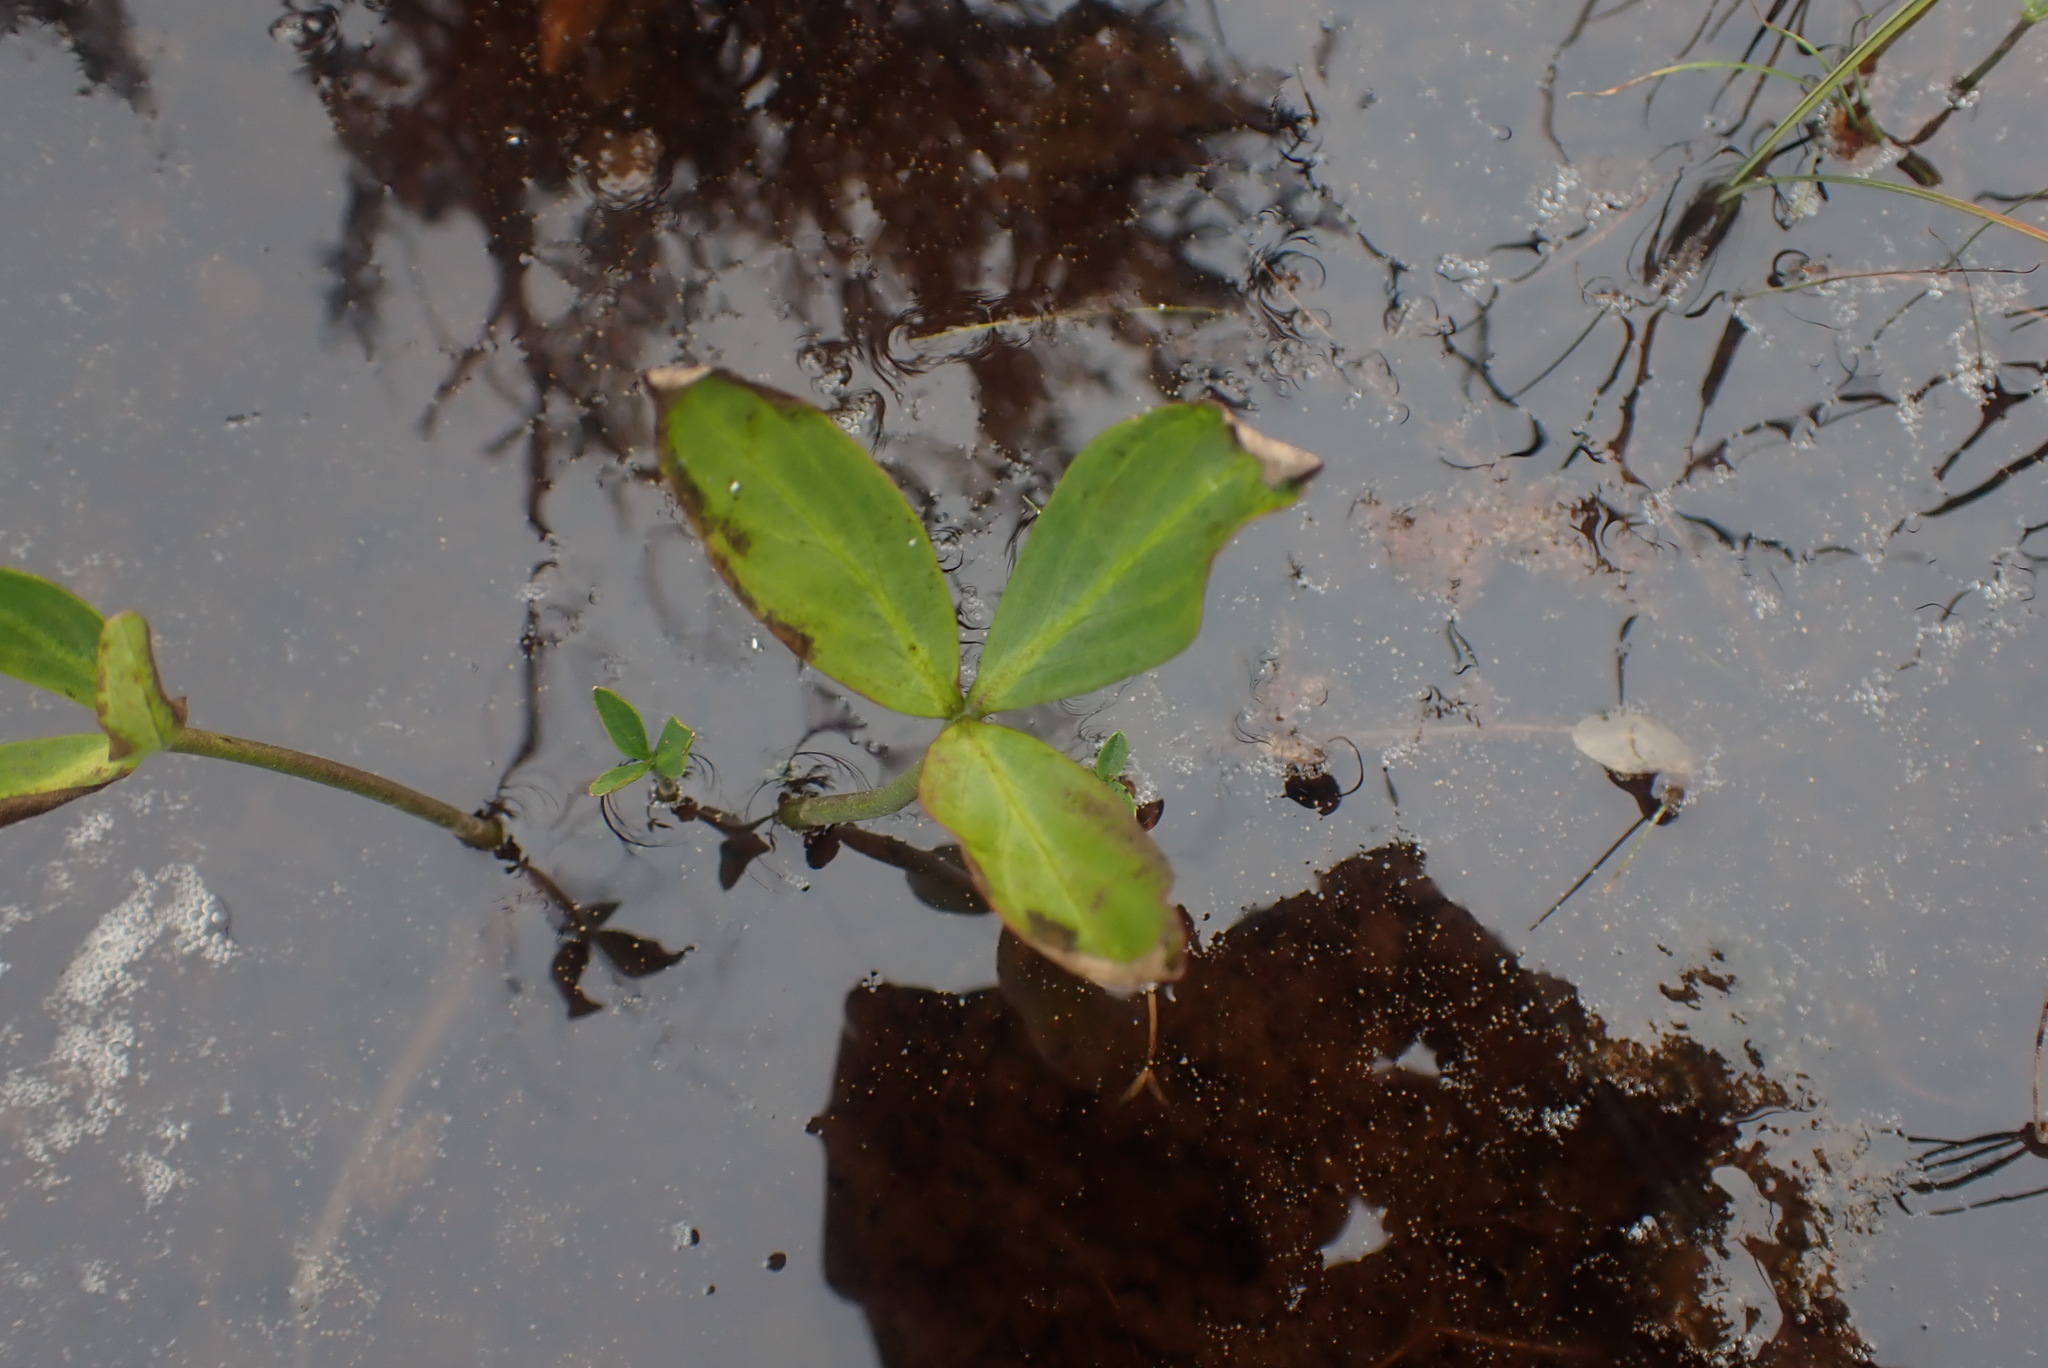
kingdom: Plantae
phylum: Tracheophyta
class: Magnoliopsida
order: Asterales
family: Menyanthaceae
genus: Menyanthes
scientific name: Menyanthes trifoliata
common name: Bogbean
